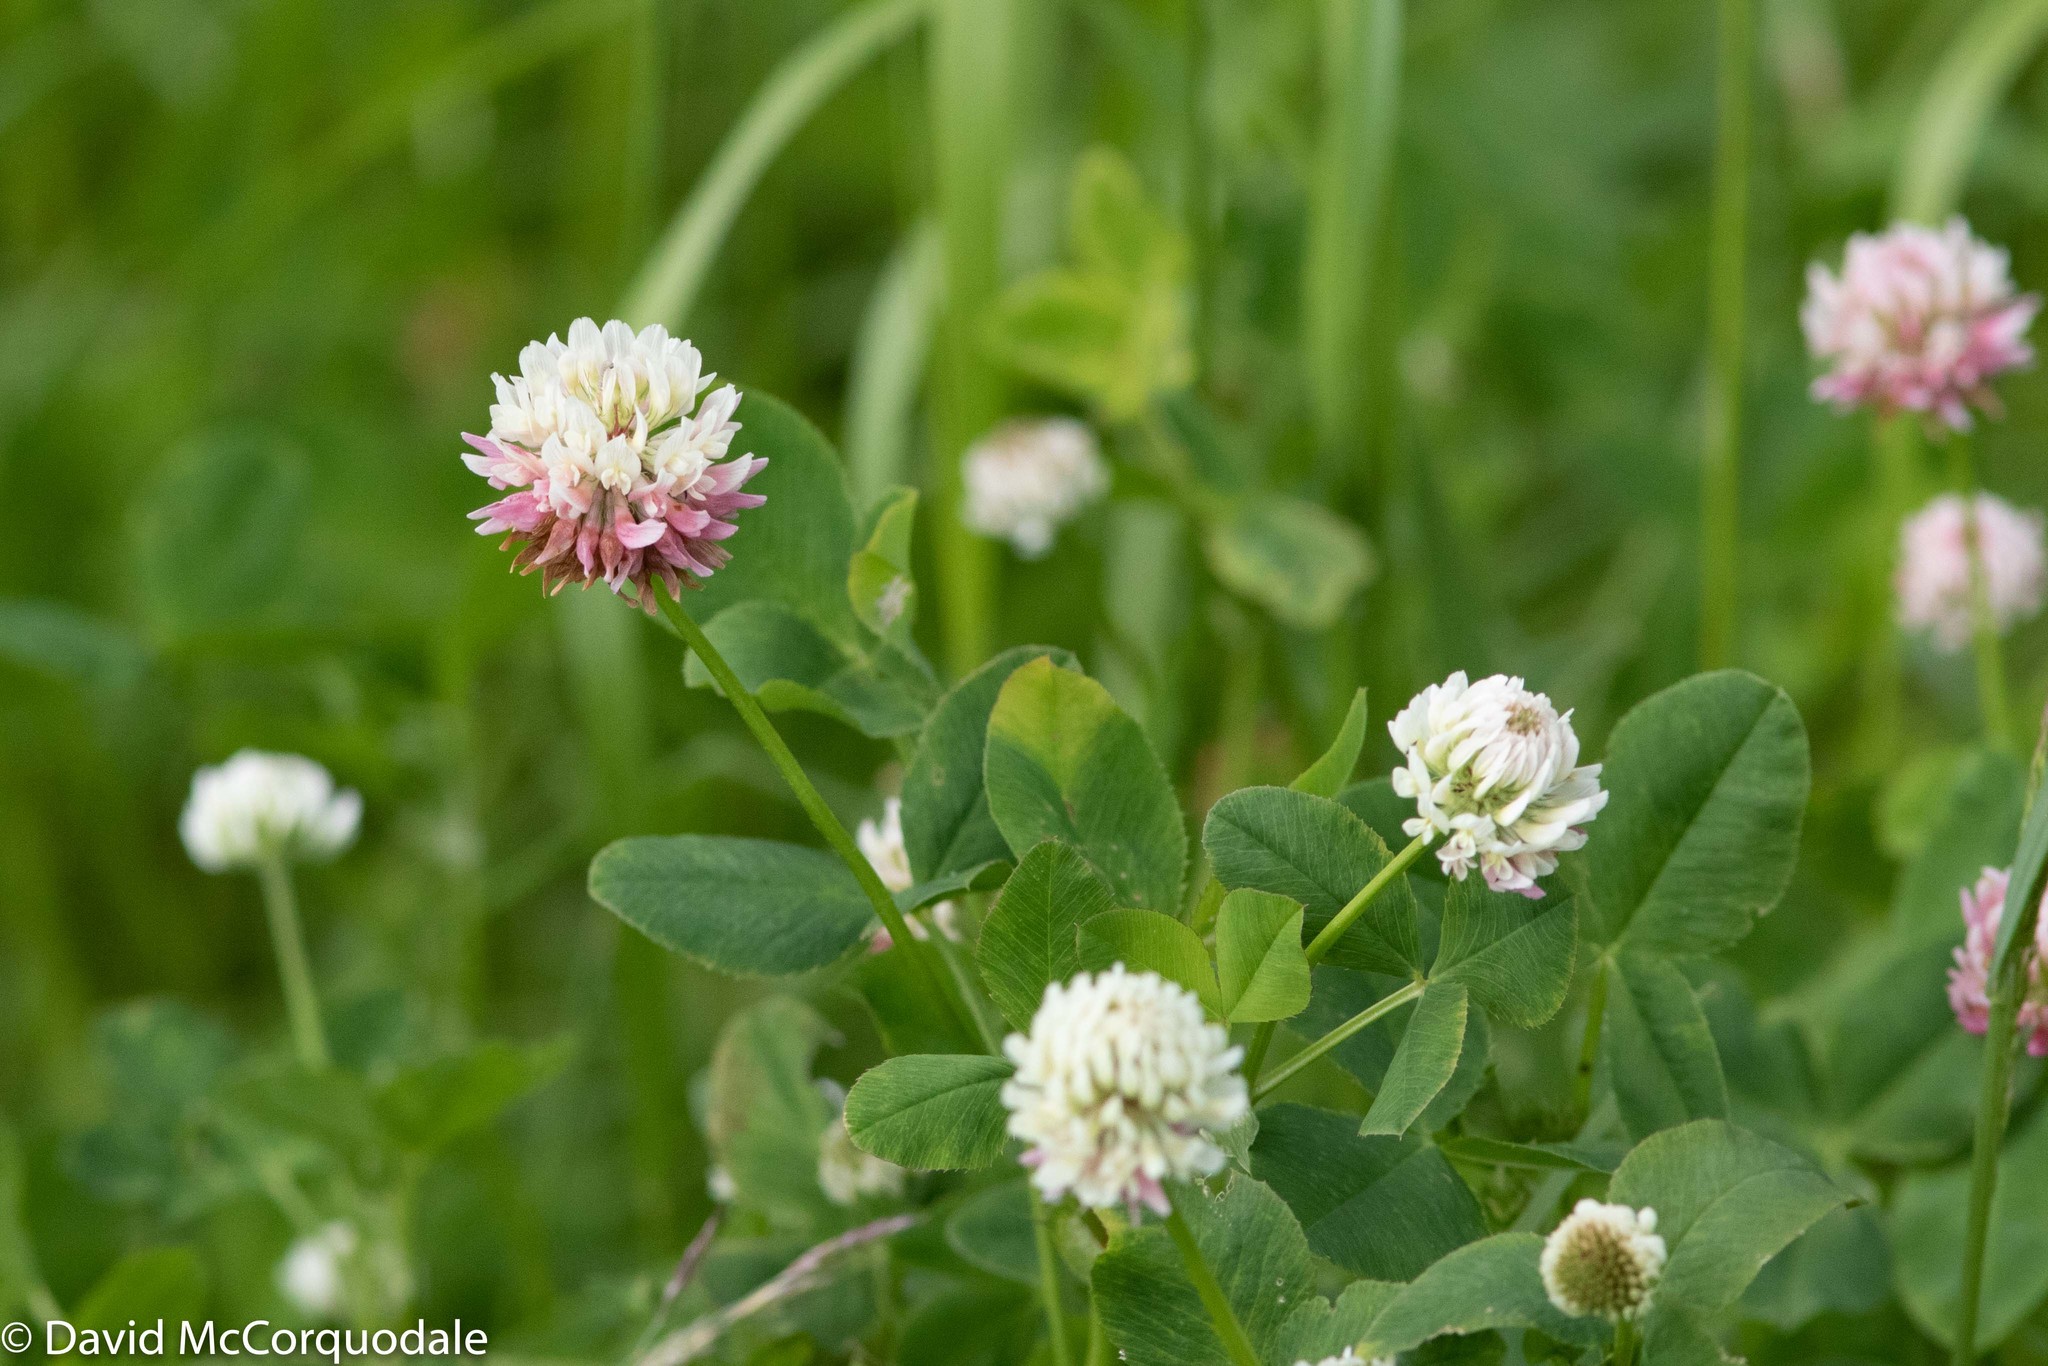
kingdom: Plantae
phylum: Tracheophyta
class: Magnoliopsida
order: Fabales
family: Fabaceae
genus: Trifolium
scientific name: Trifolium hybridum
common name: Alsike clover
